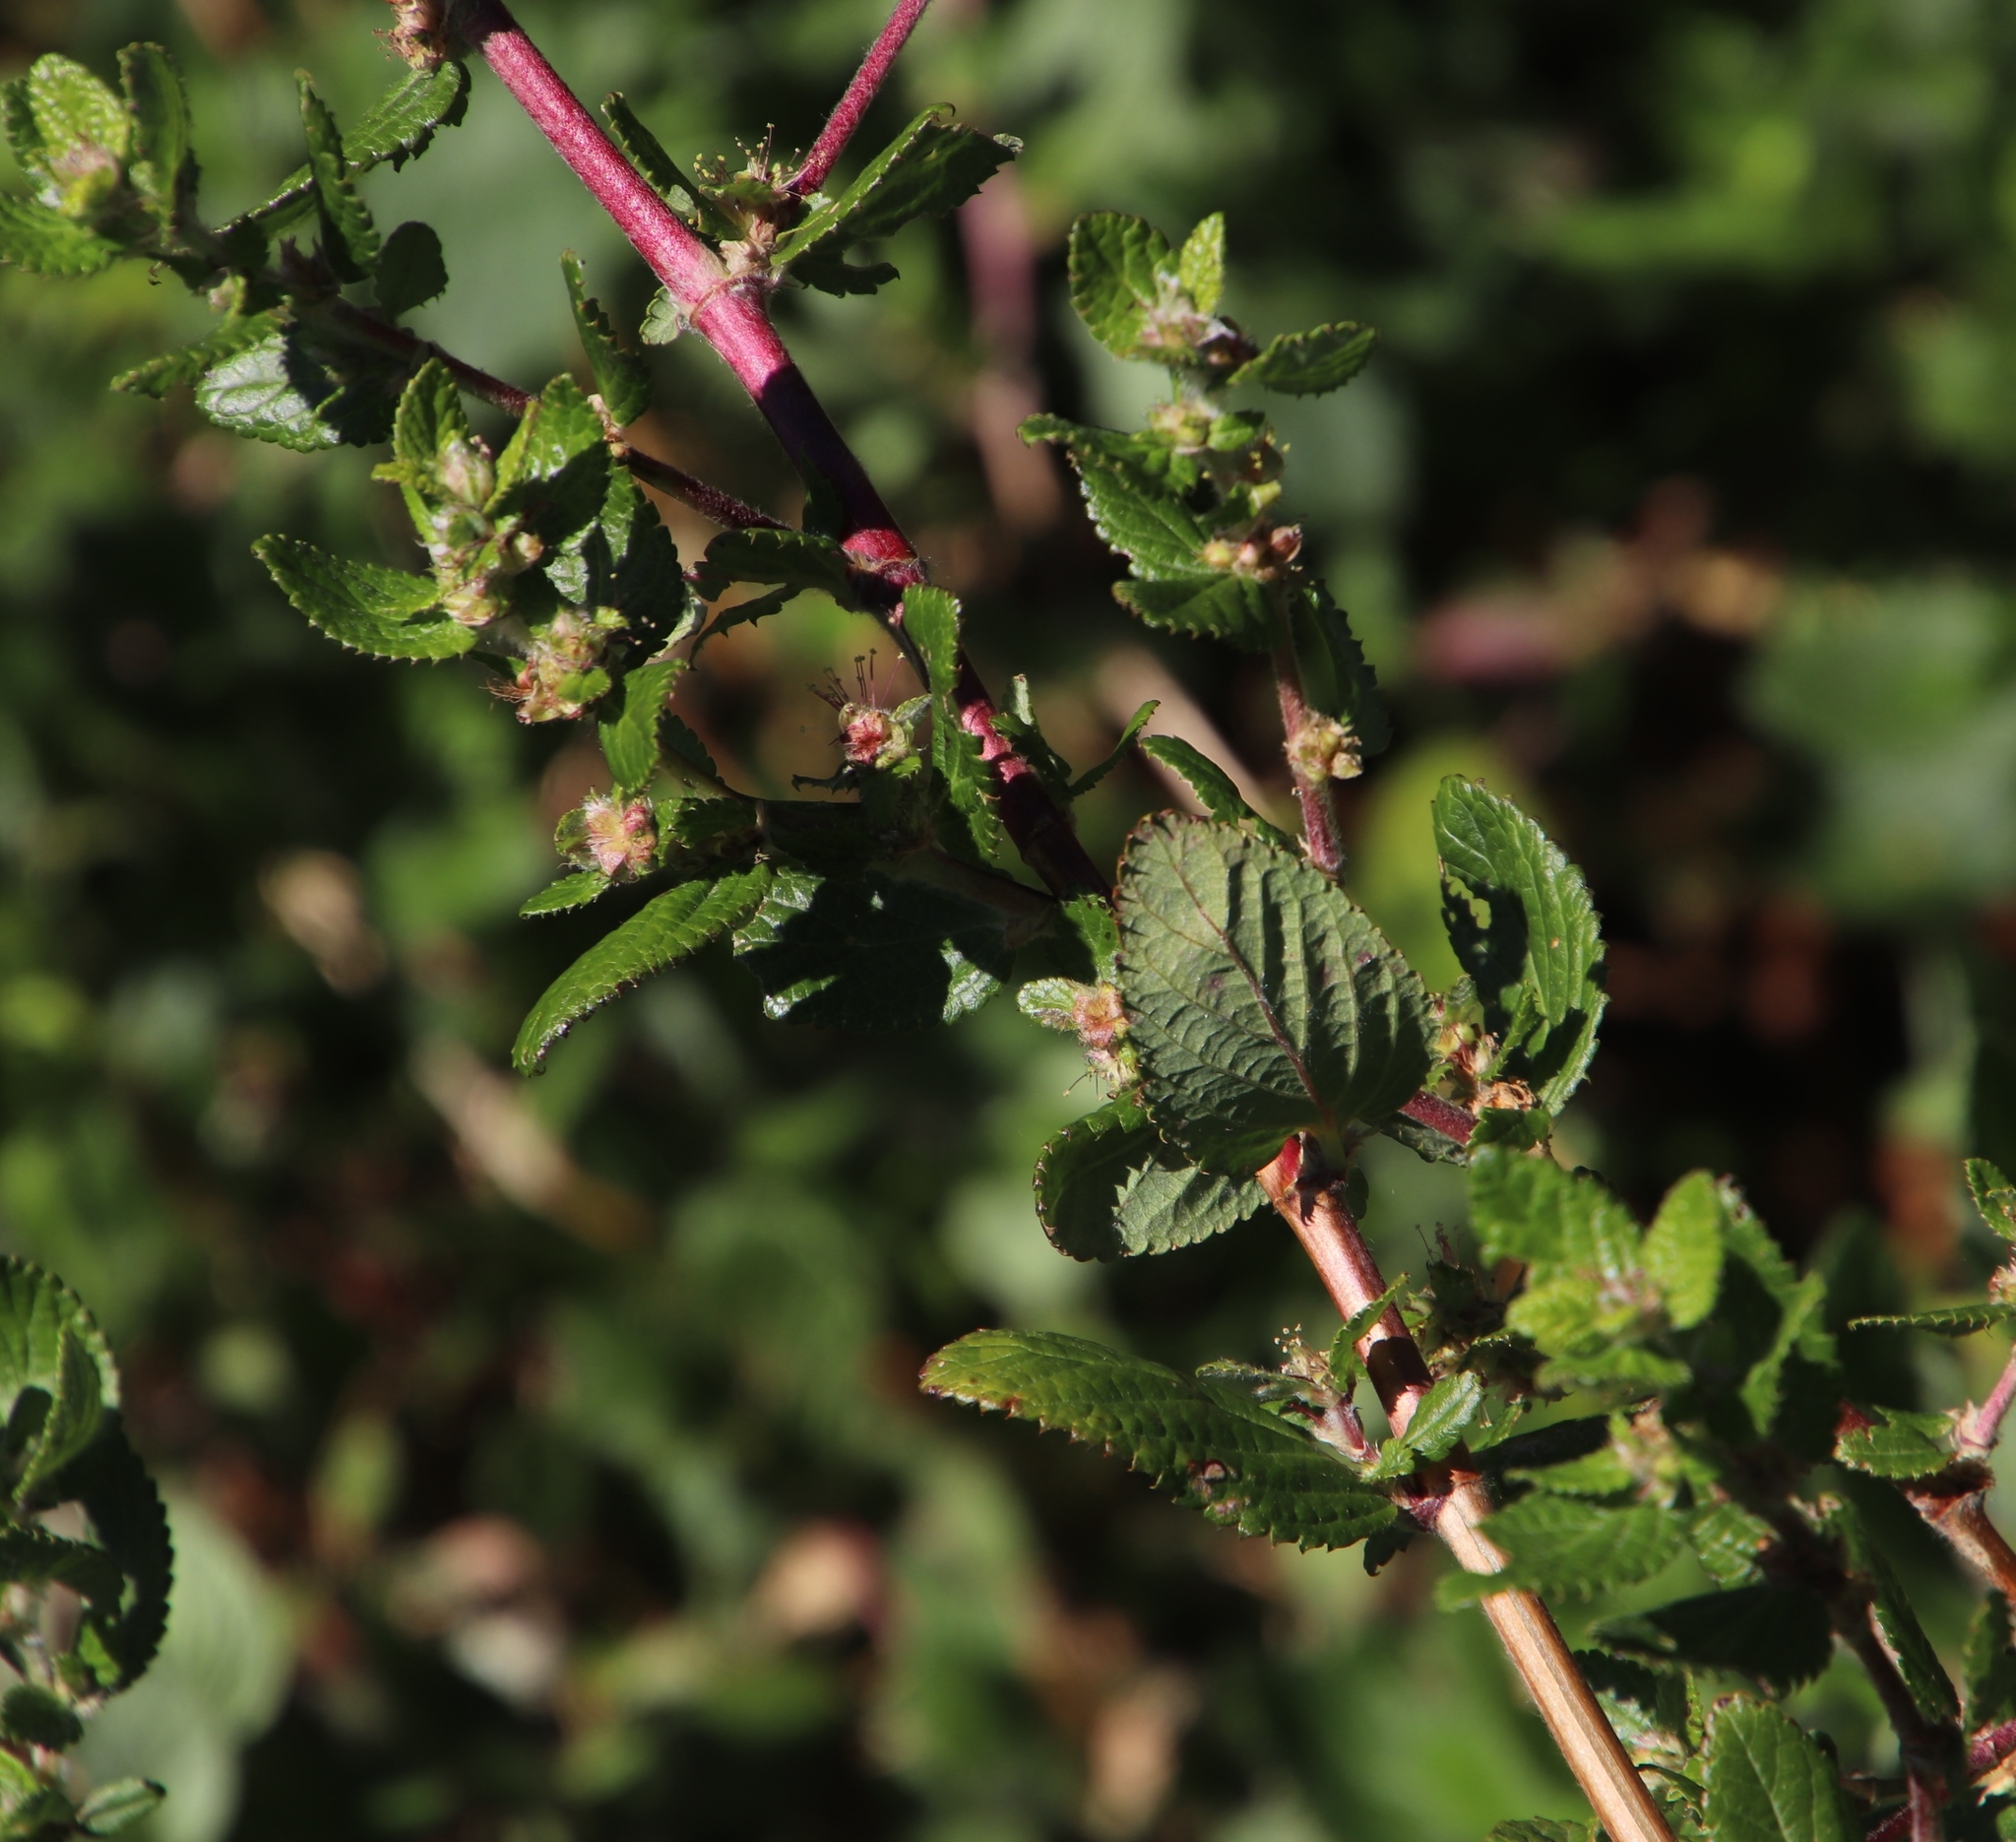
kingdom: Plantae
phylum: Tracheophyta
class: Magnoliopsida
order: Rosales
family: Rosaceae
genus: Cliffortia
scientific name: Cliffortia odorata
